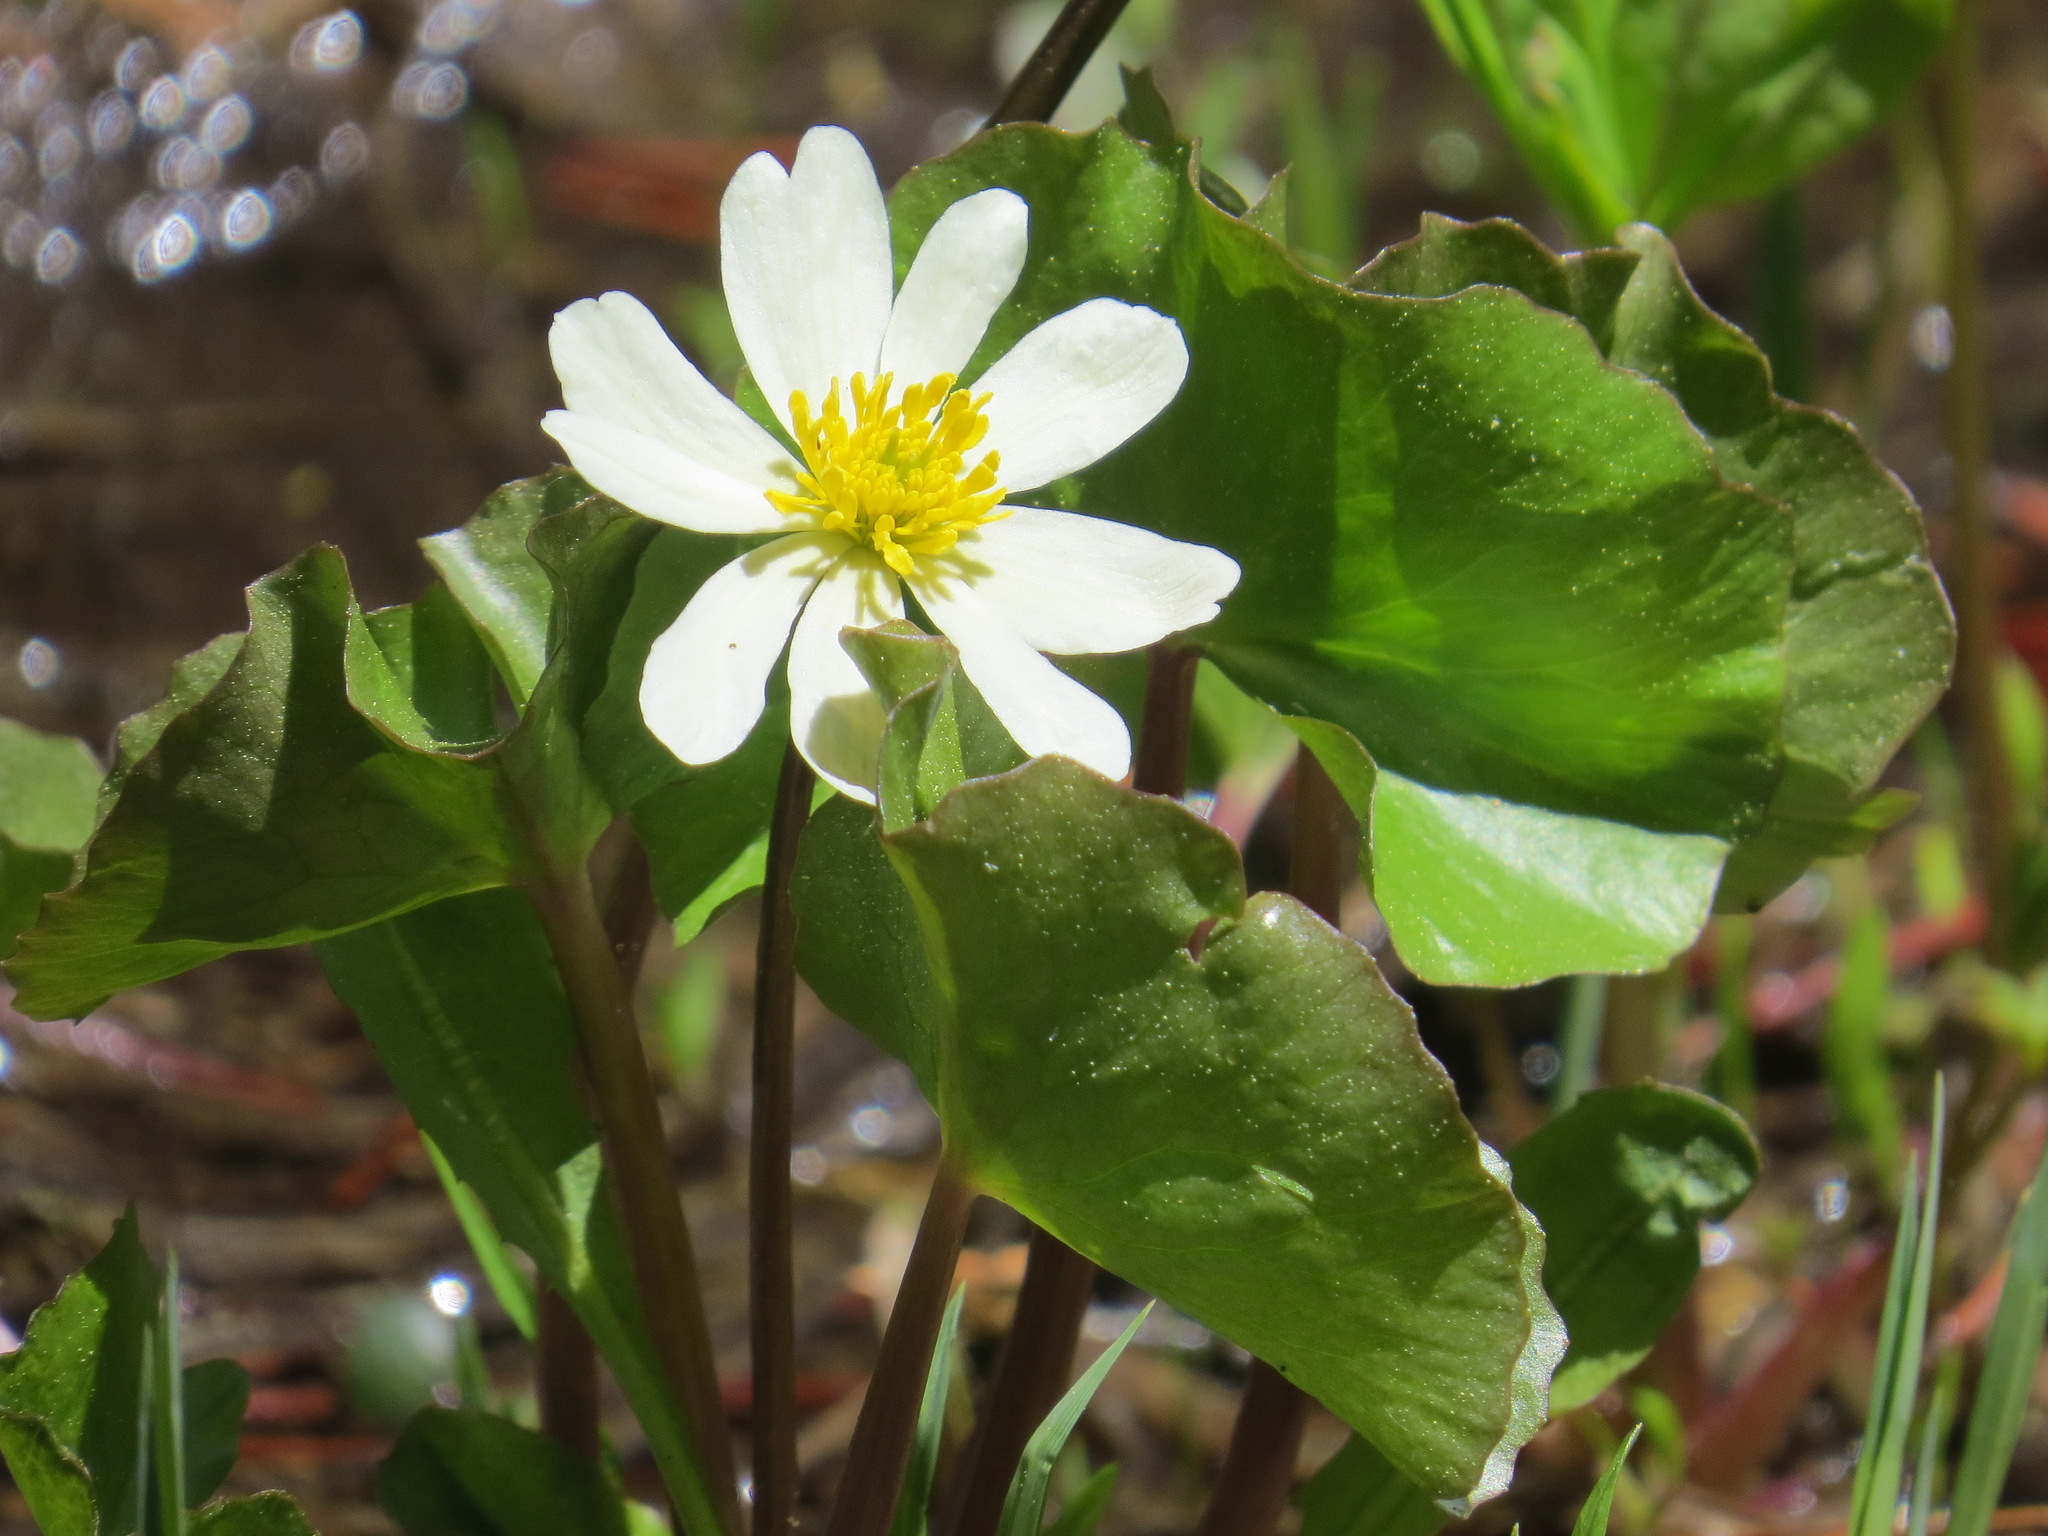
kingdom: Plantae
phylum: Tracheophyta
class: Magnoliopsida
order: Ranunculales
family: Ranunculaceae
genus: Caltha
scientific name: Caltha leptosepala
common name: Elkslip
